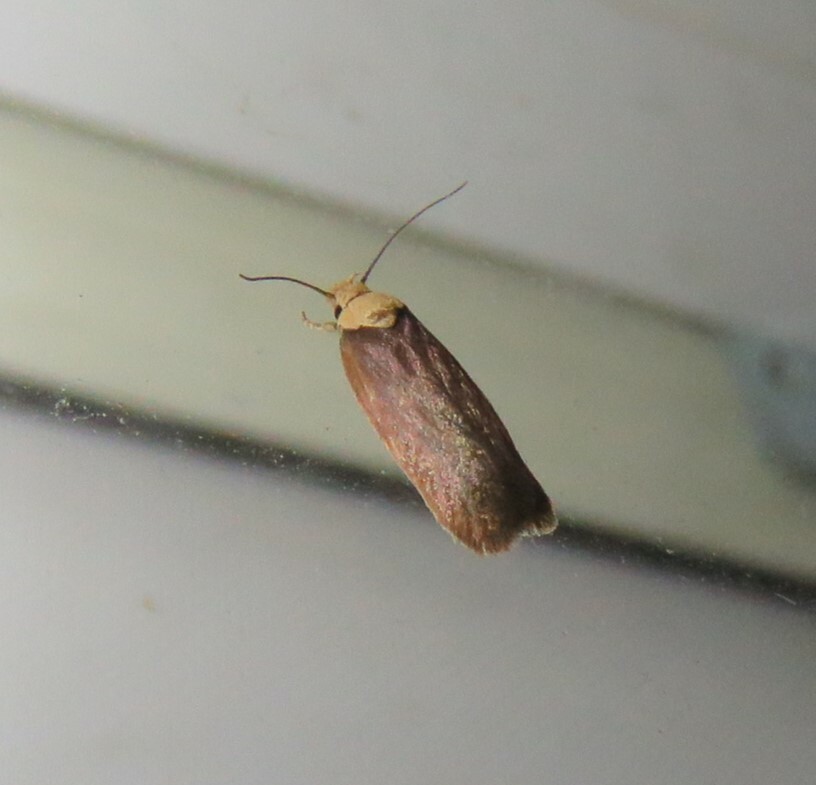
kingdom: Animalia
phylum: Arthropoda
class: Insecta
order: Lepidoptera
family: Depressariidae
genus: Depressaria
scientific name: Depressaria depressana
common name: Lost flat-body
